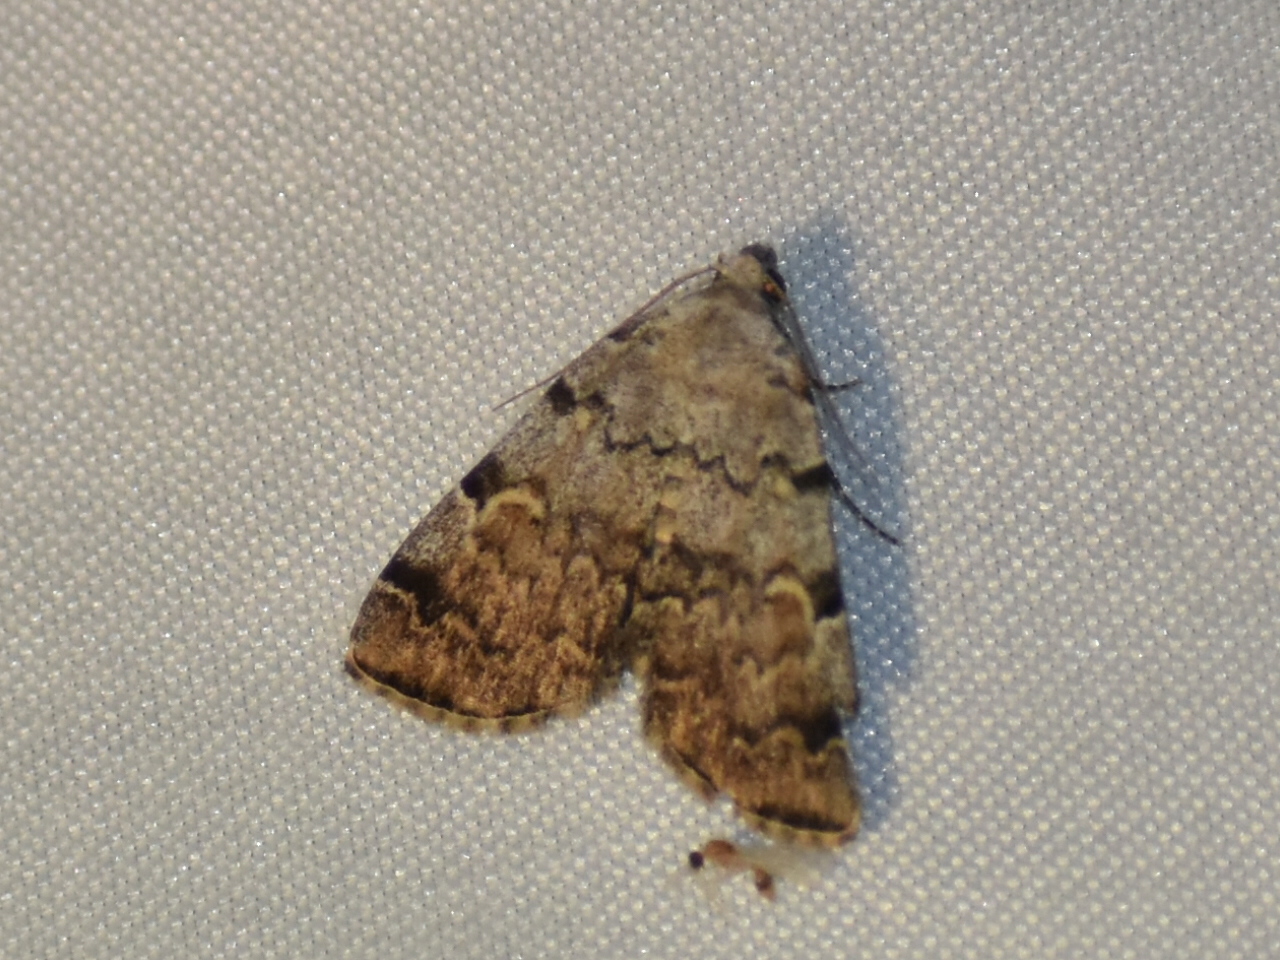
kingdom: Animalia
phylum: Arthropoda
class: Insecta
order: Lepidoptera
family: Erebidae
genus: Idia
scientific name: Idia americalis
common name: American idia moth
